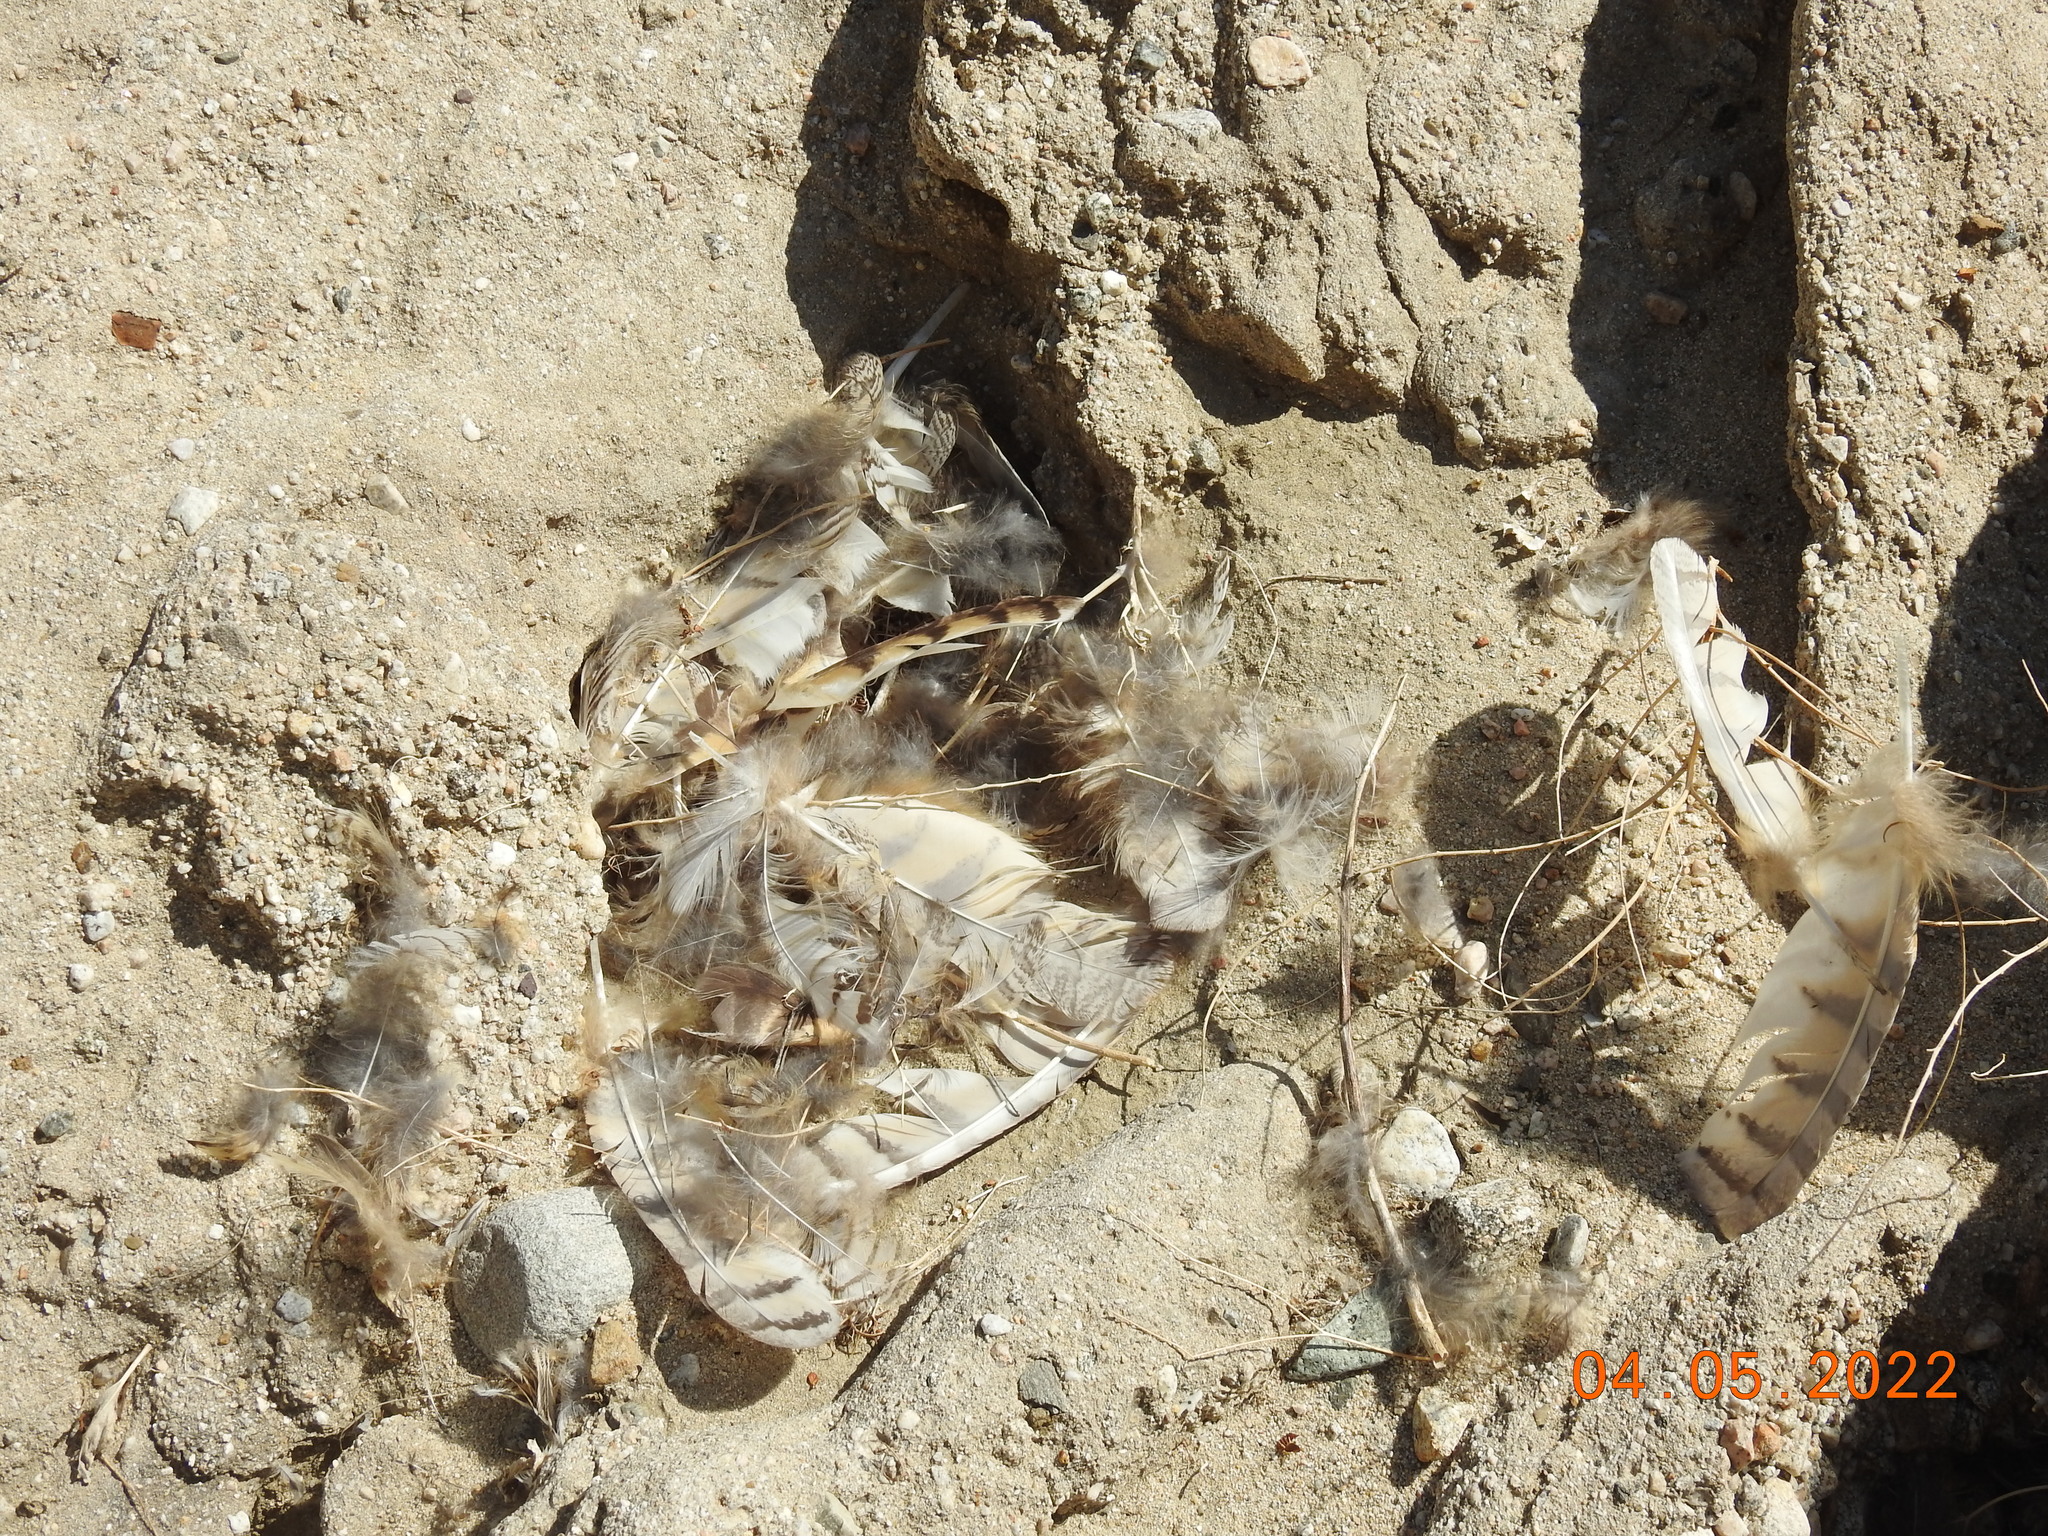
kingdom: Animalia
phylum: Chordata
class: Aves
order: Strigiformes
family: Strigidae
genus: Bubo
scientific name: Bubo virginianus
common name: Great horned owl
